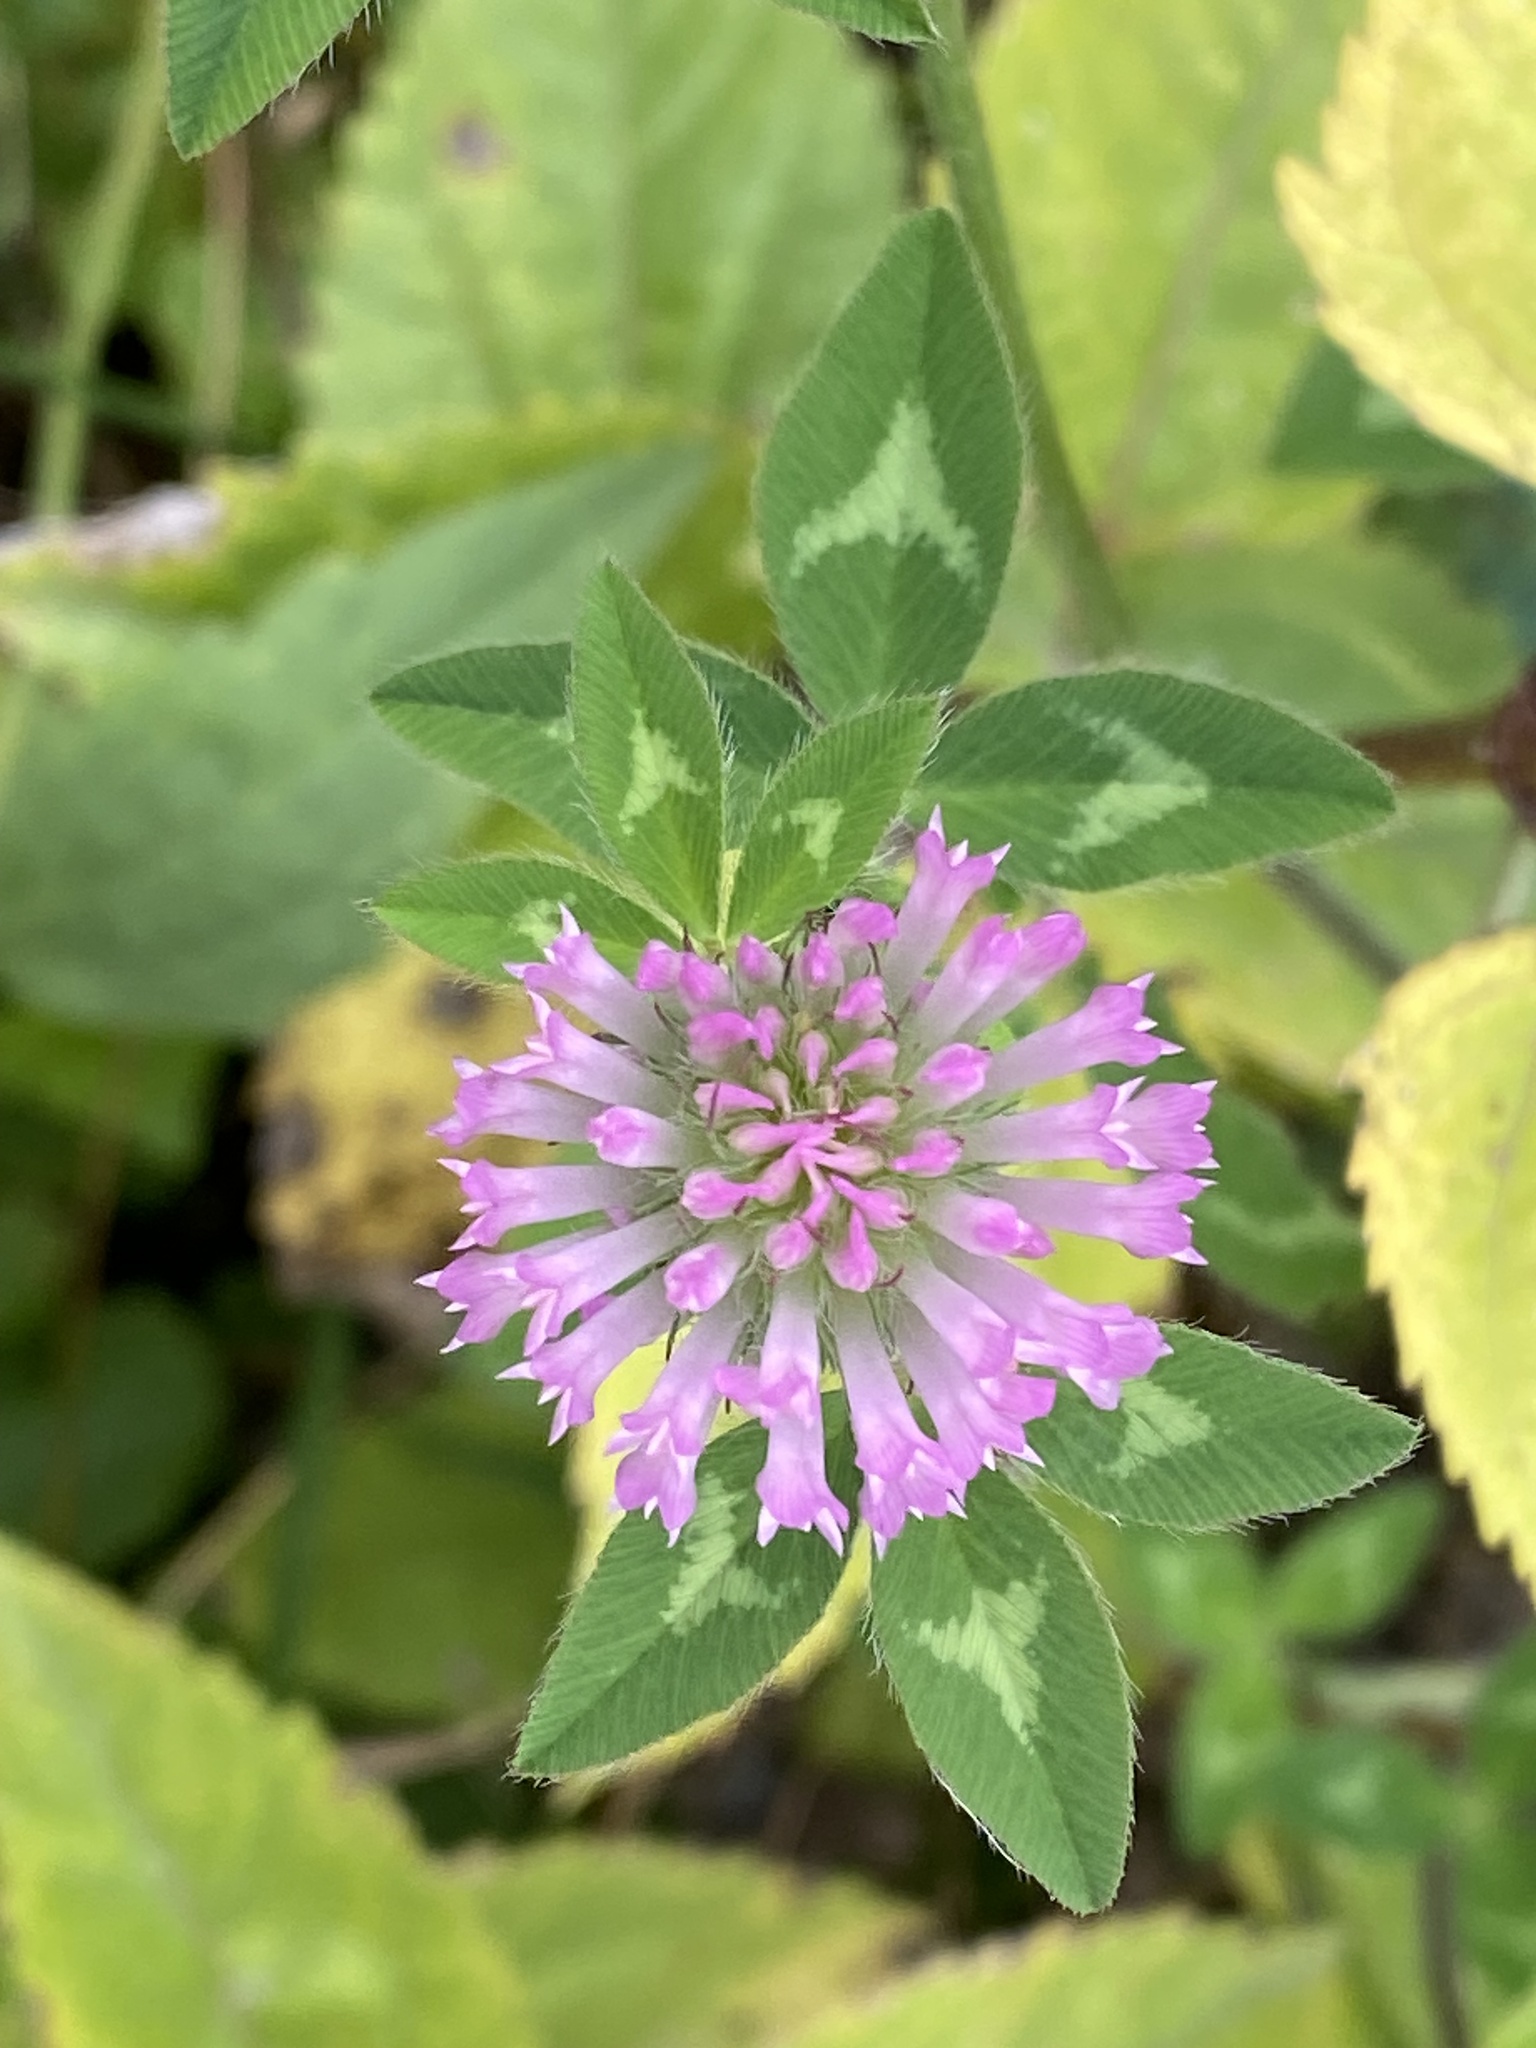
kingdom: Plantae
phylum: Tracheophyta
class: Magnoliopsida
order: Fabales
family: Fabaceae
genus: Trifolium
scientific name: Trifolium pratense
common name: Red clover
